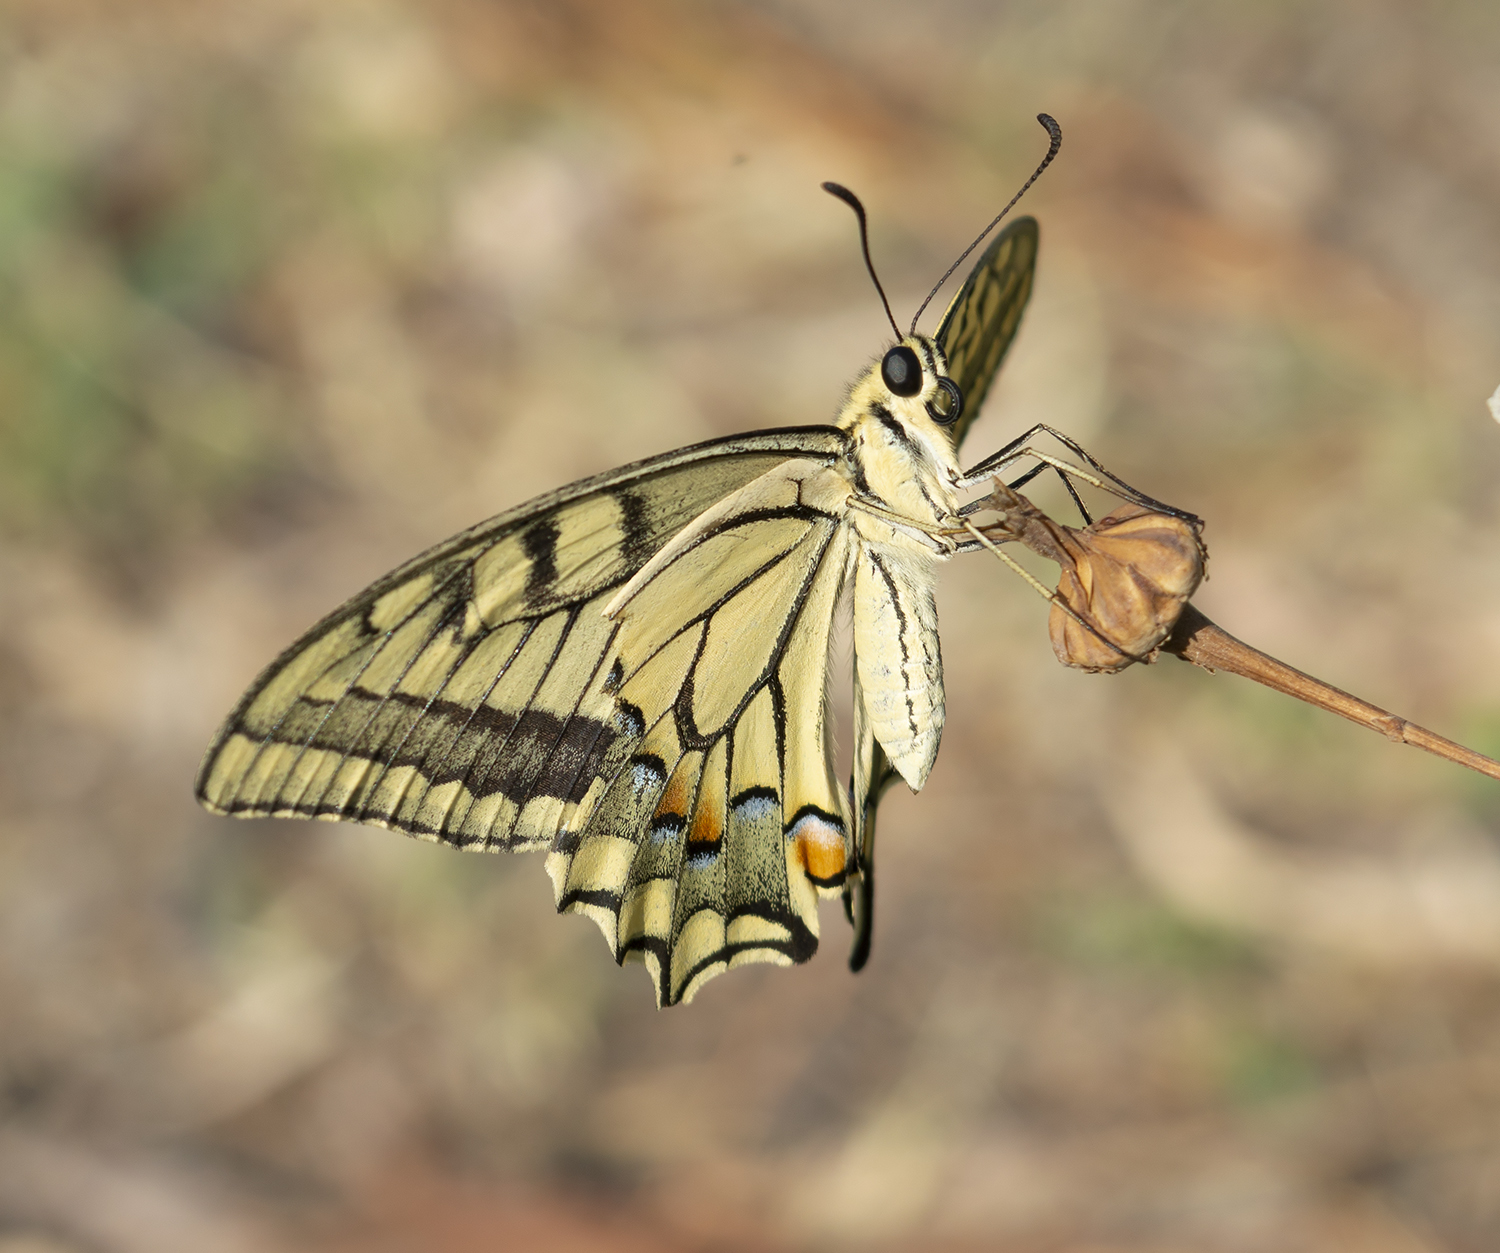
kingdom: Animalia
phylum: Arthropoda
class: Insecta
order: Lepidoptera
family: Papilionidae
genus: Papilio
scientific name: Papilio machaon
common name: Swallowtail
